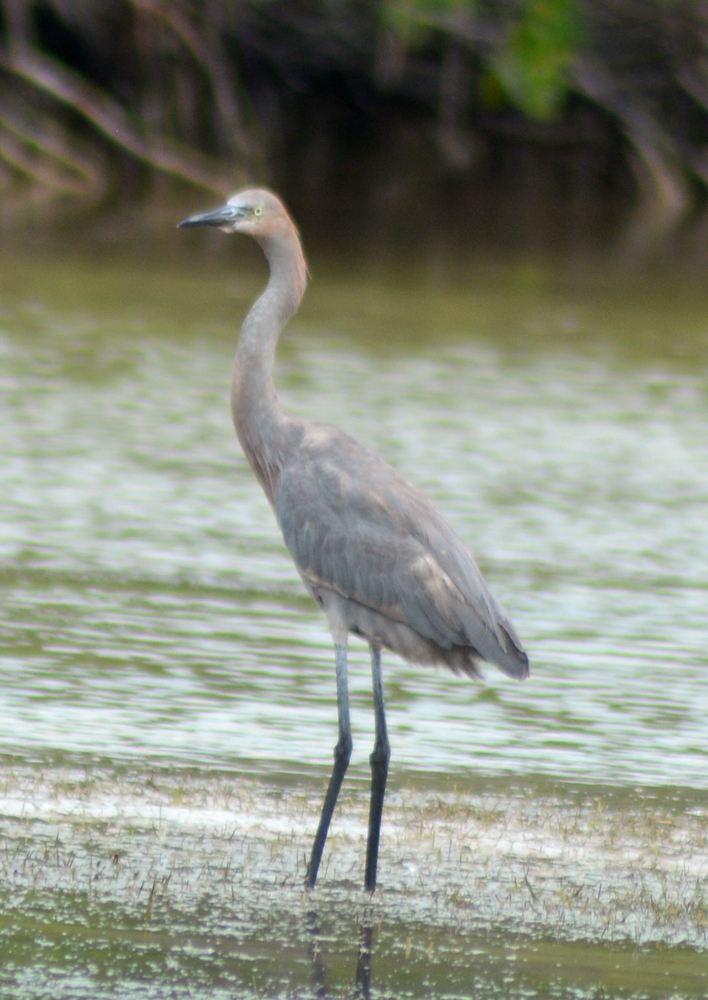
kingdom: Animalia
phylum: Chordata
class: Aves
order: Pelecaniformes
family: Ardeidae
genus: Egretta
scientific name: Egretta rufescens
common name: Reddish egret
